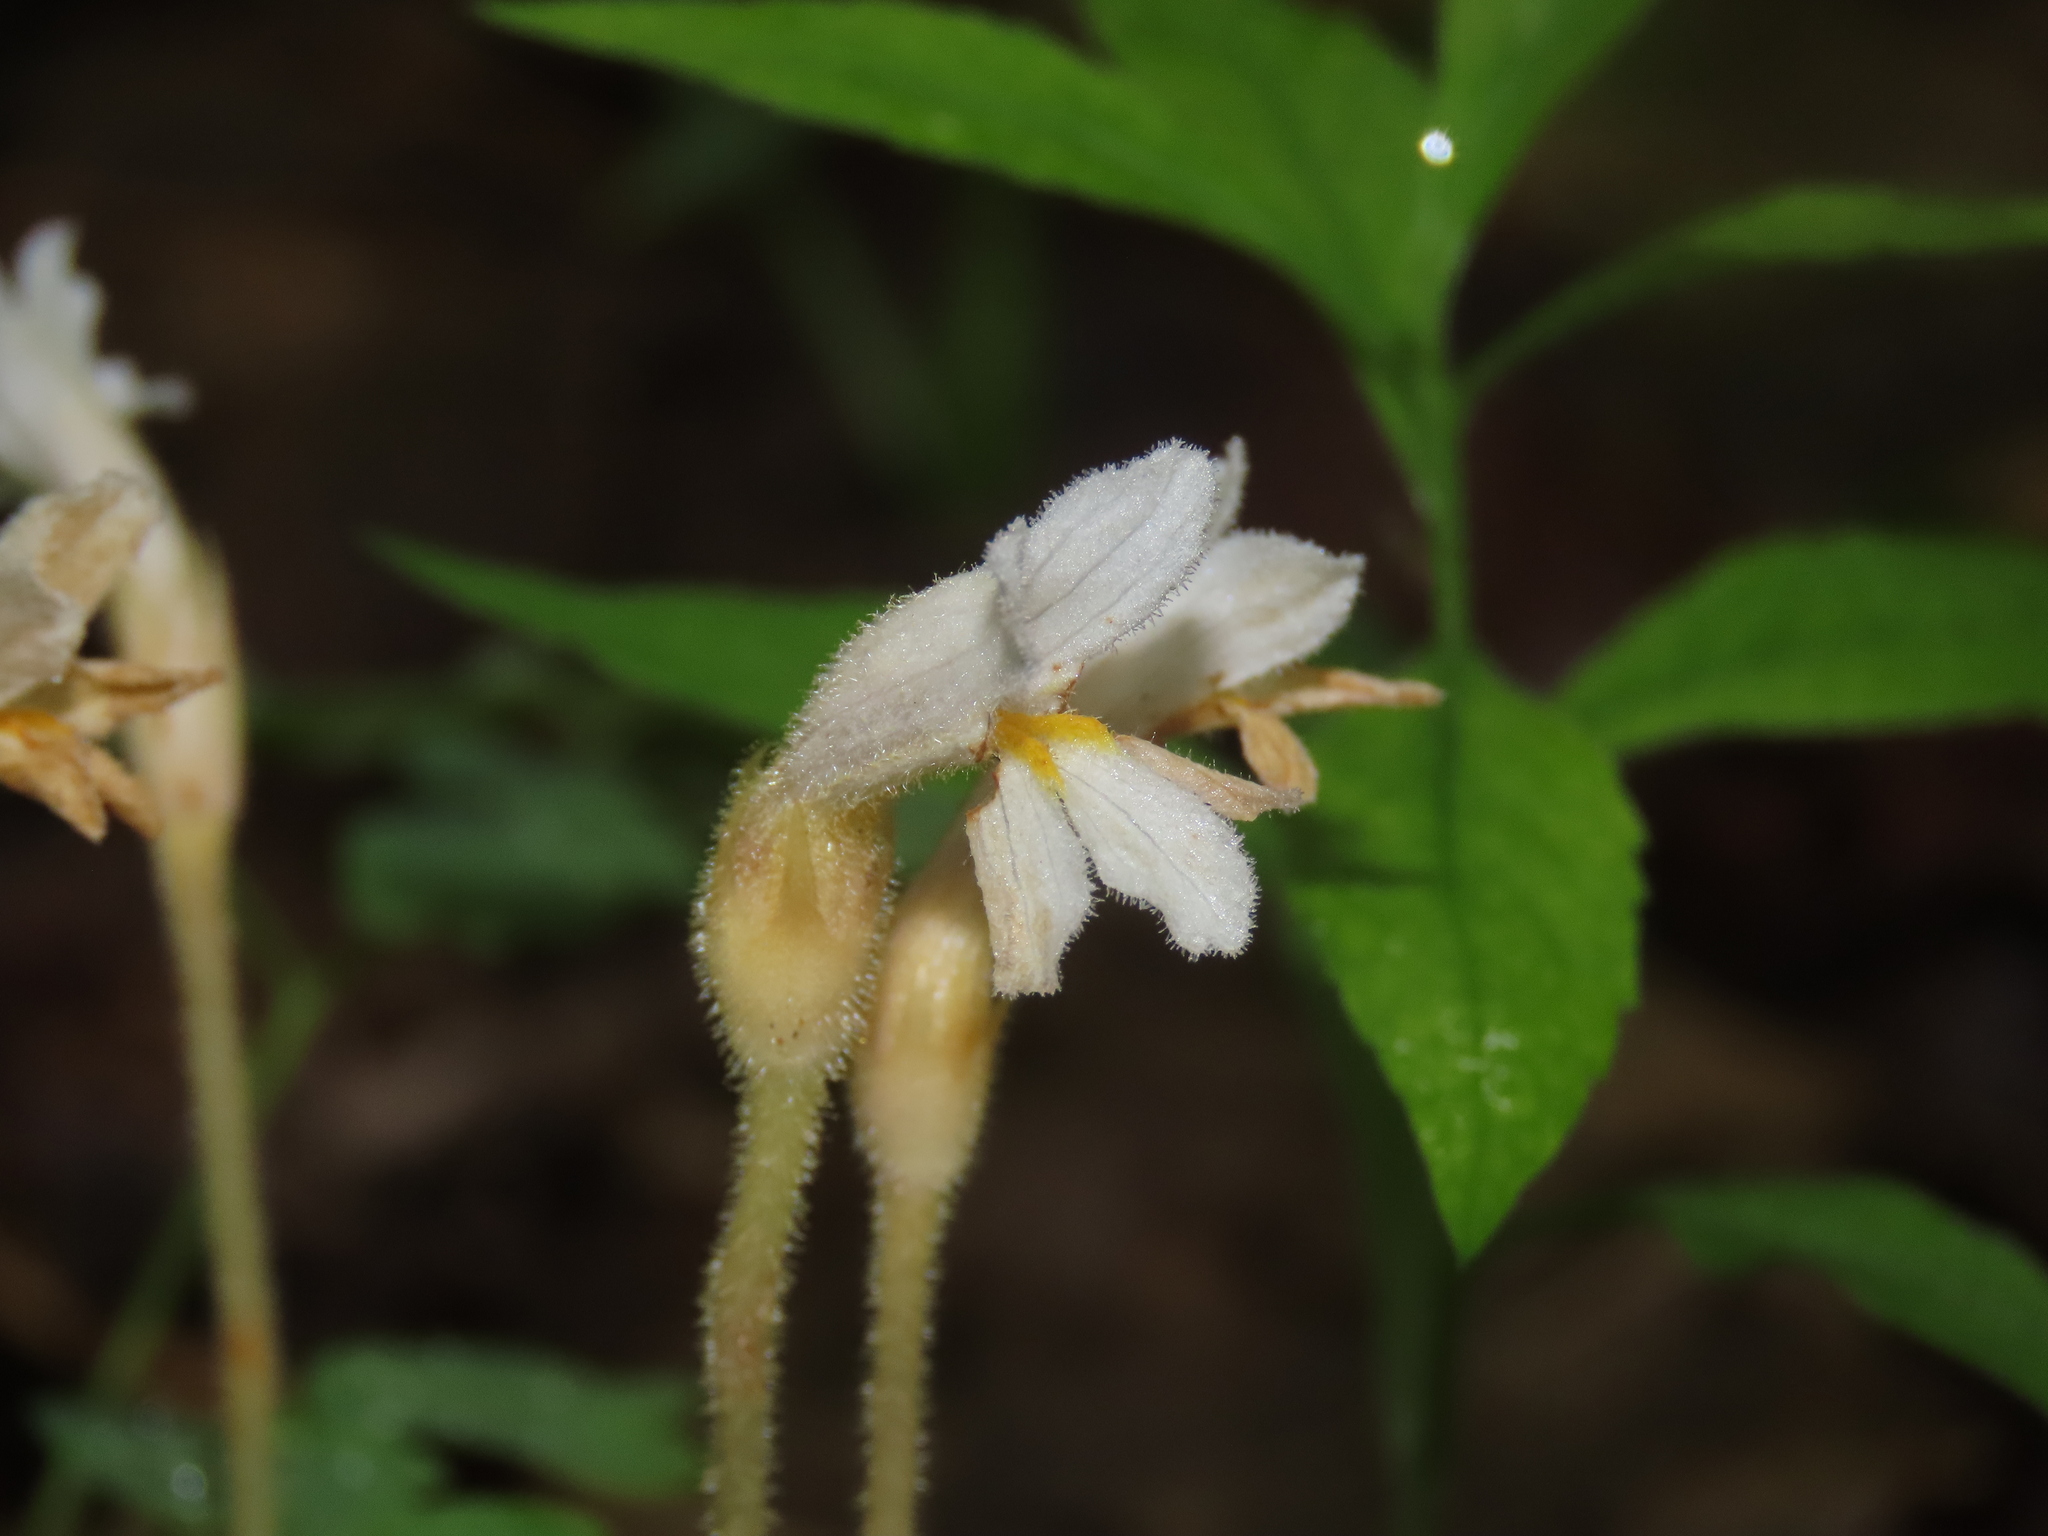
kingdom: Plantae
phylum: Tracheophyta
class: Magnoliopsida
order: Lamiales
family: Orobanchaceae
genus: Aphyllon
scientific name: Aphyllon uniflorum
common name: One-flowered broomrape
